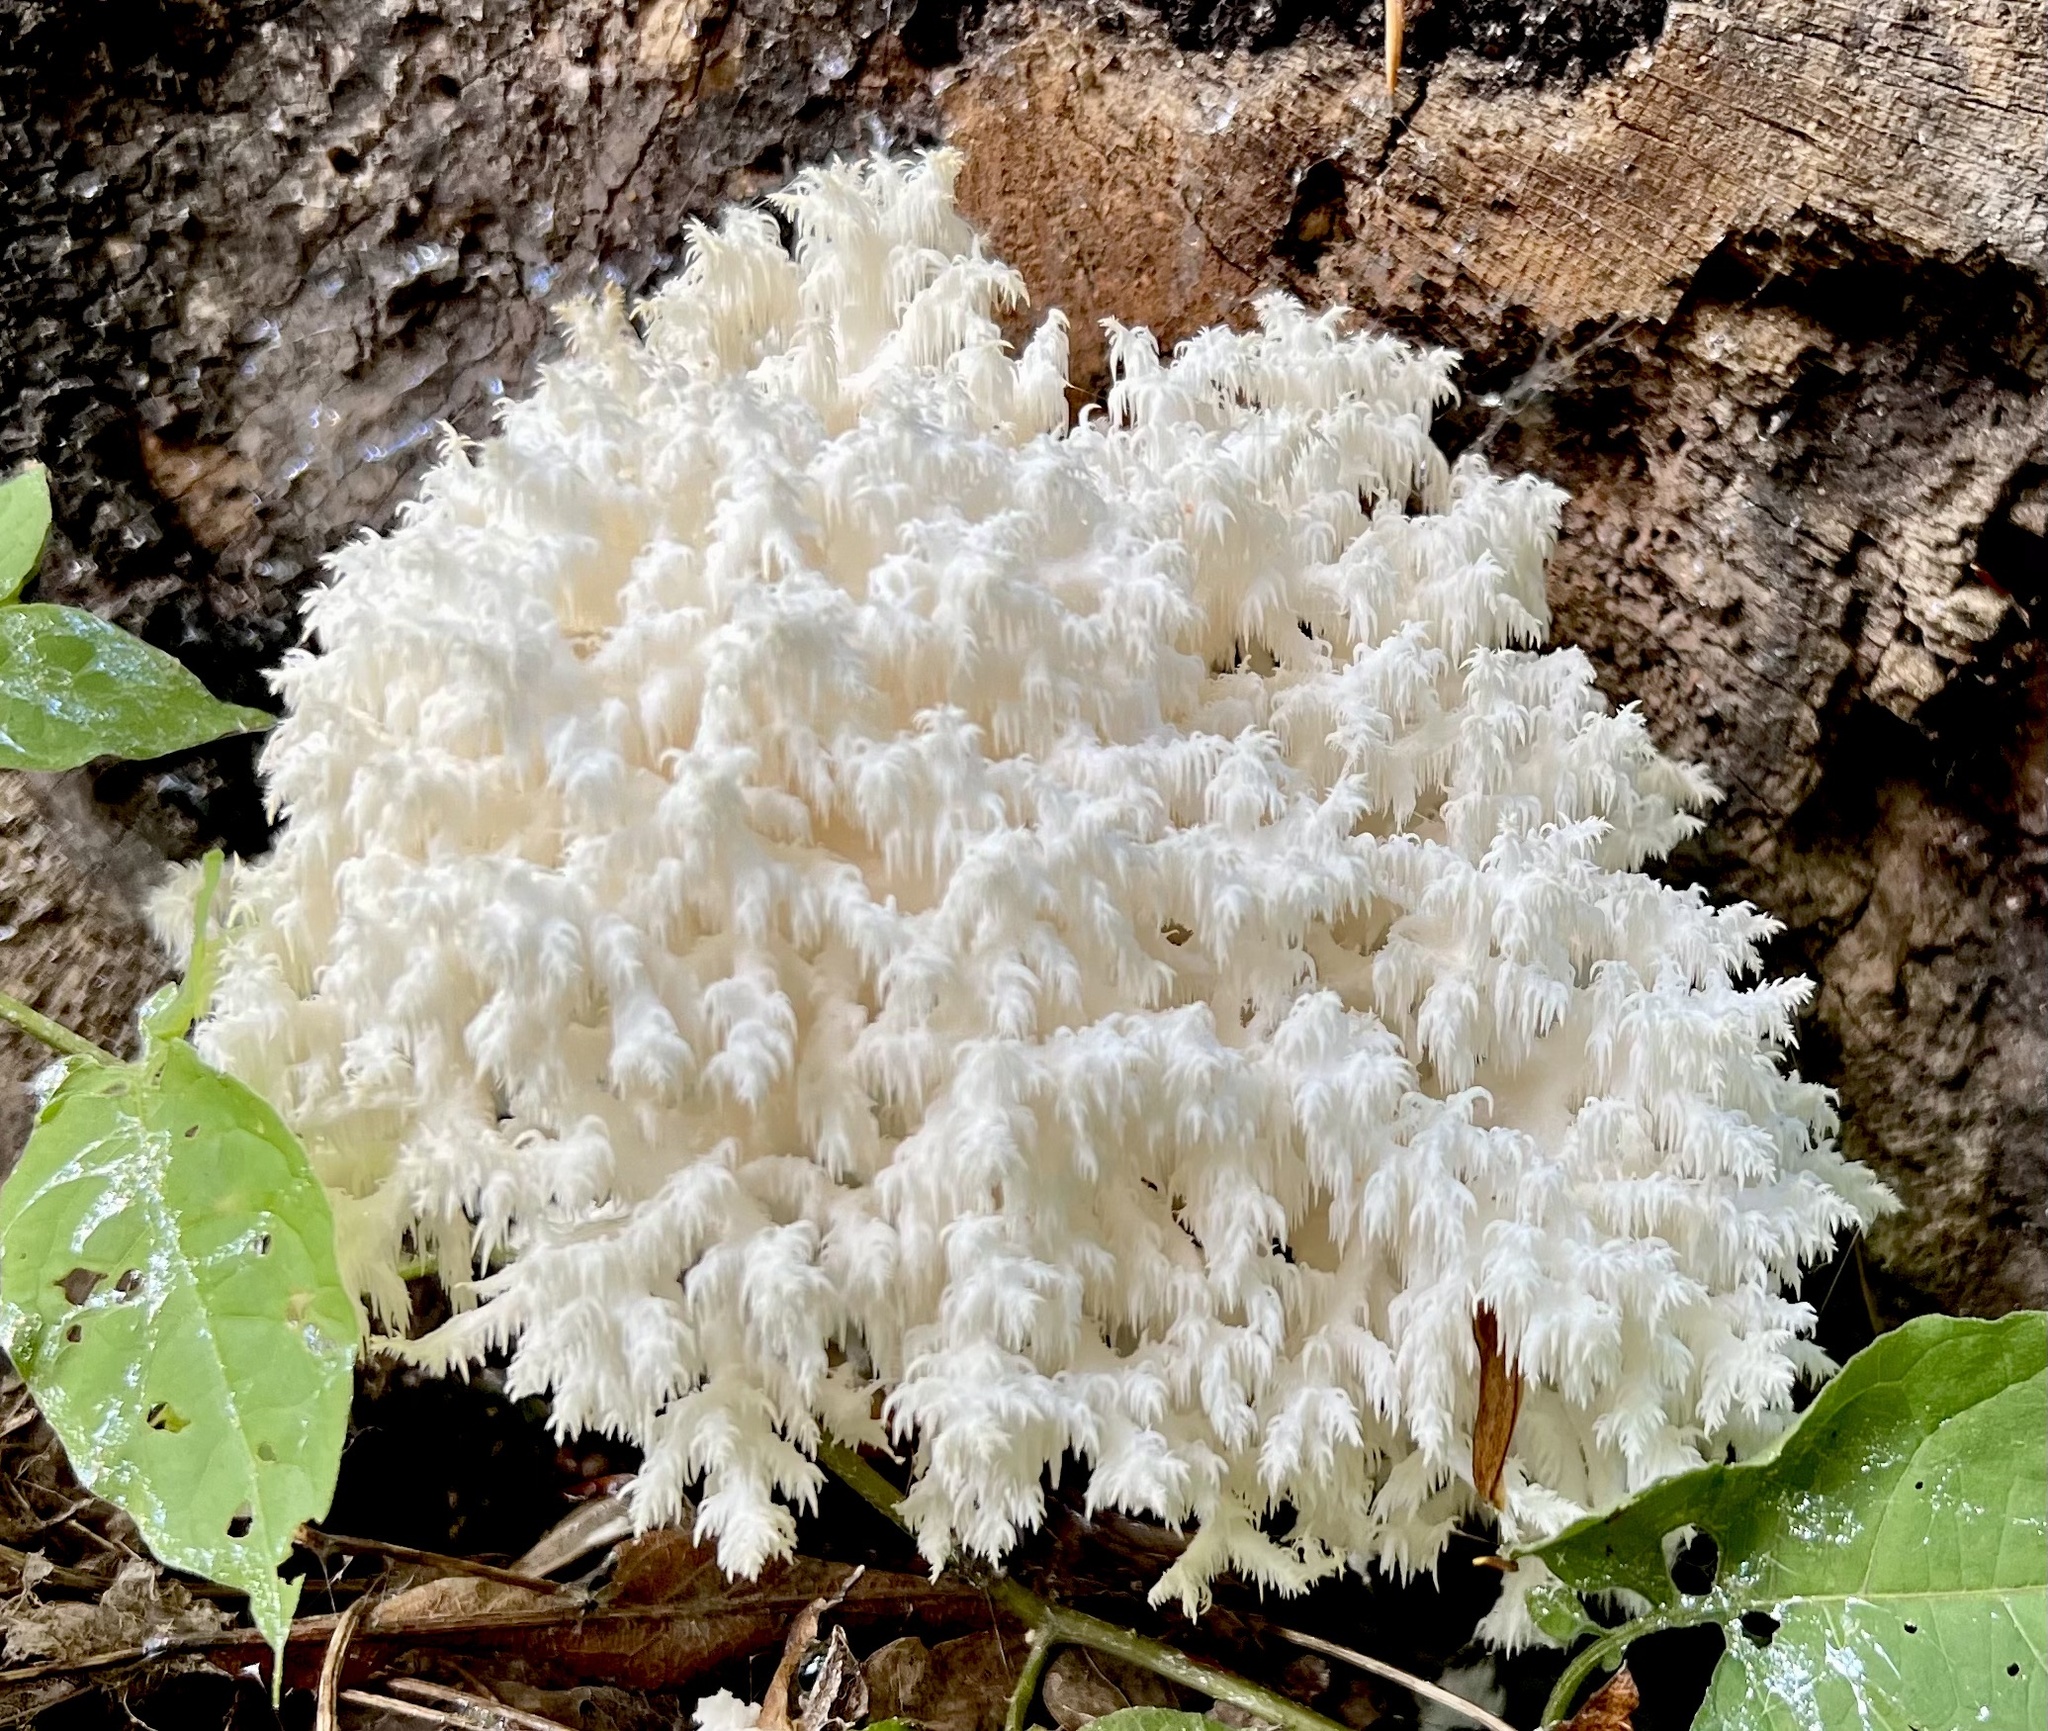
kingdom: Fungi
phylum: Basidiomycota
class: Agaricomycetes
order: Russulales
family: Hericiaceae
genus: Hericium
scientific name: Hericium coralloides
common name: Coral tooth
